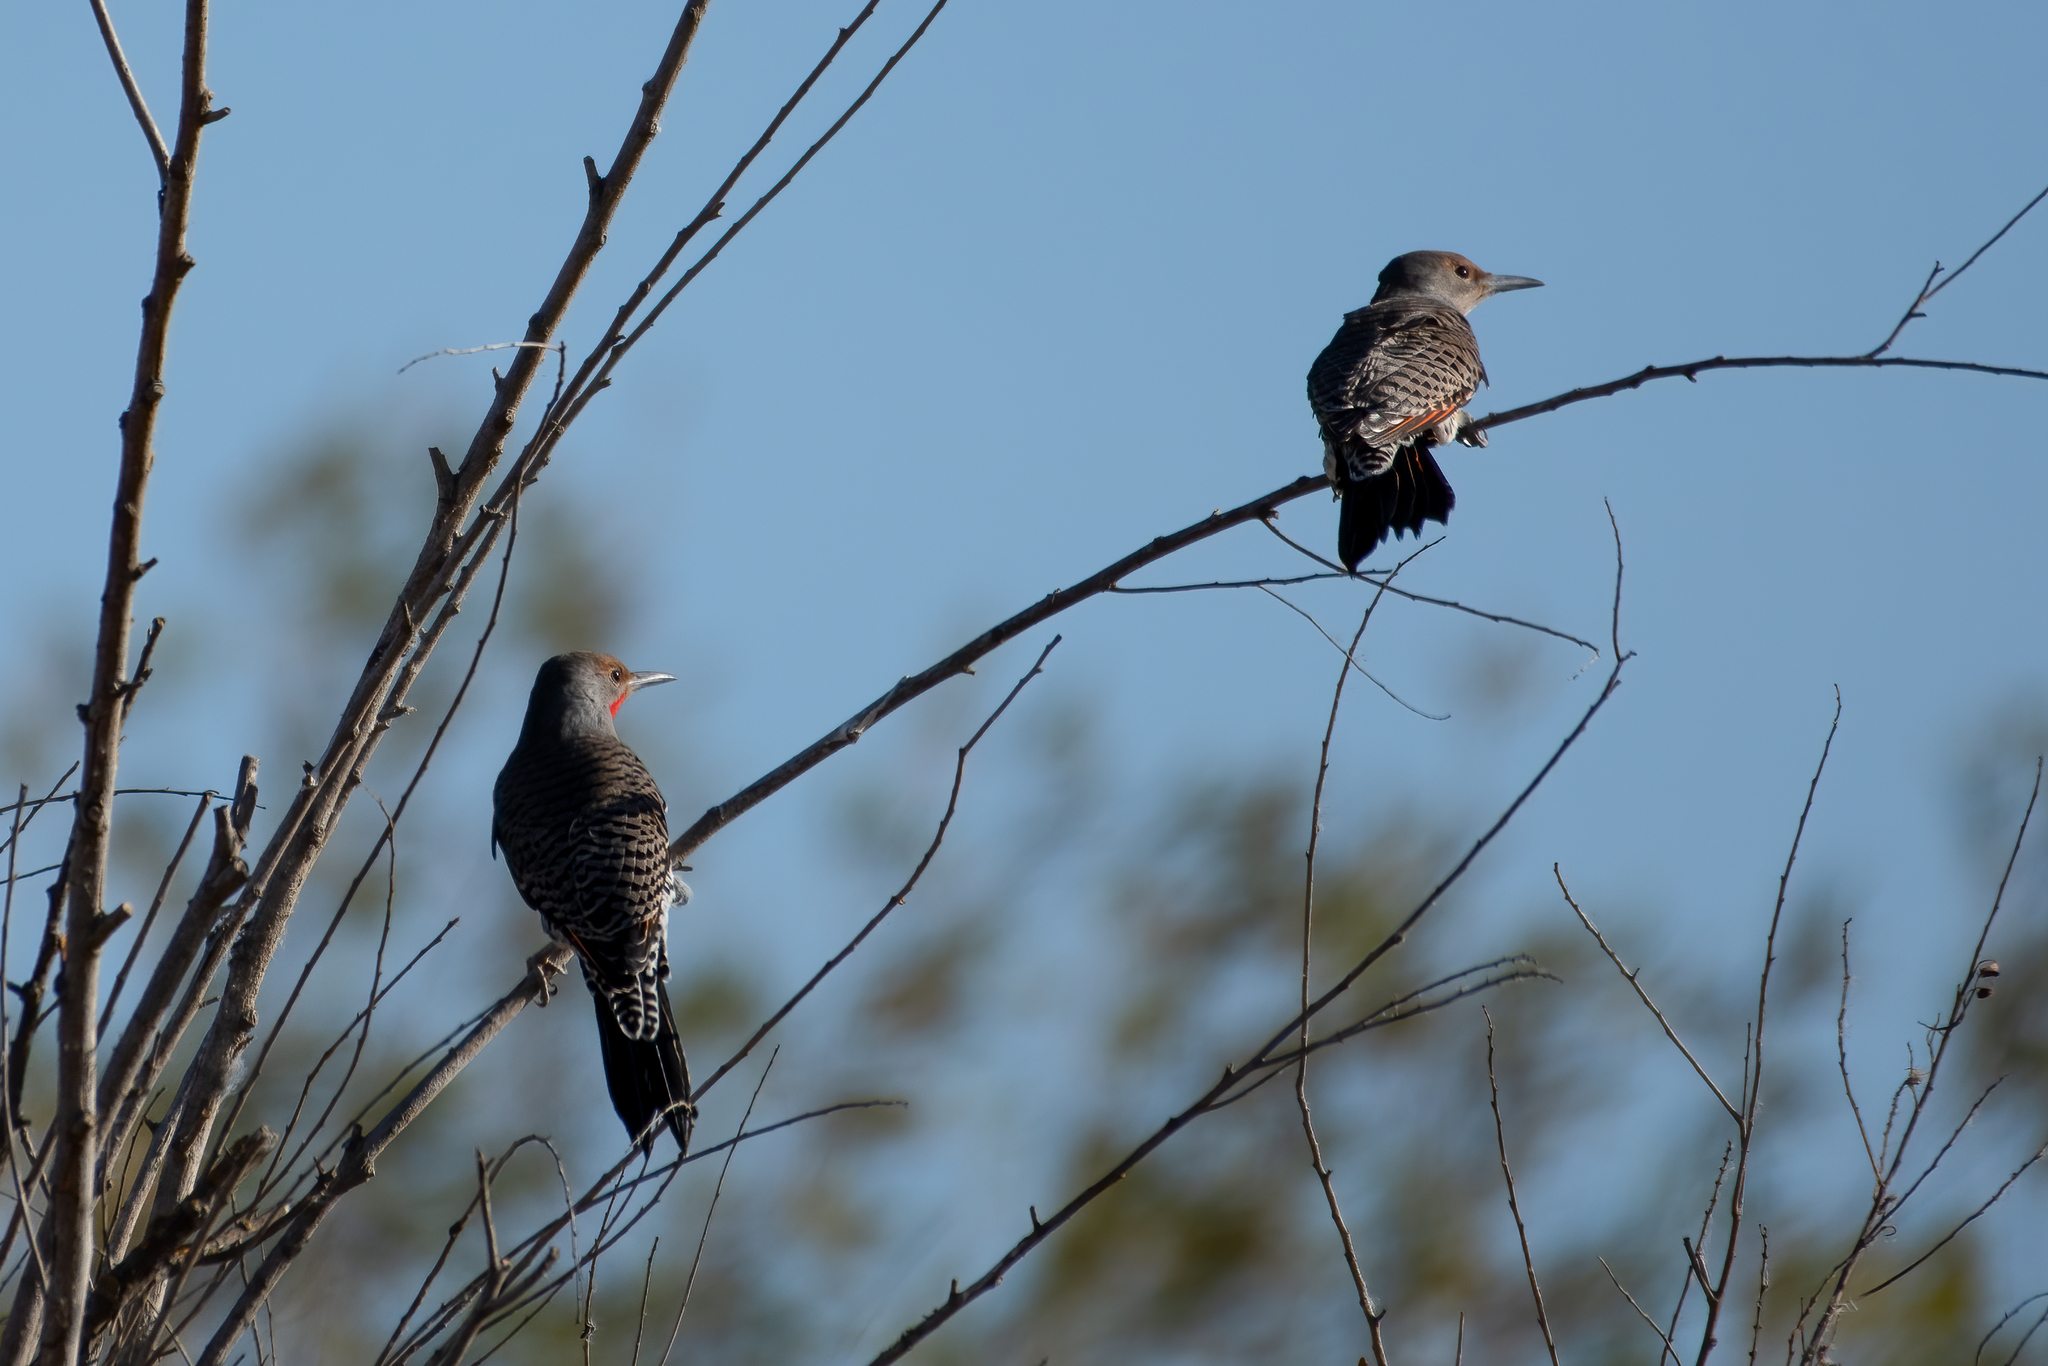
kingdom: Animalia
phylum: Chordata
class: Aves
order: Piciformes
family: Picidae
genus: Colaptes
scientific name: Colaptes auratus
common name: Northern flicker
